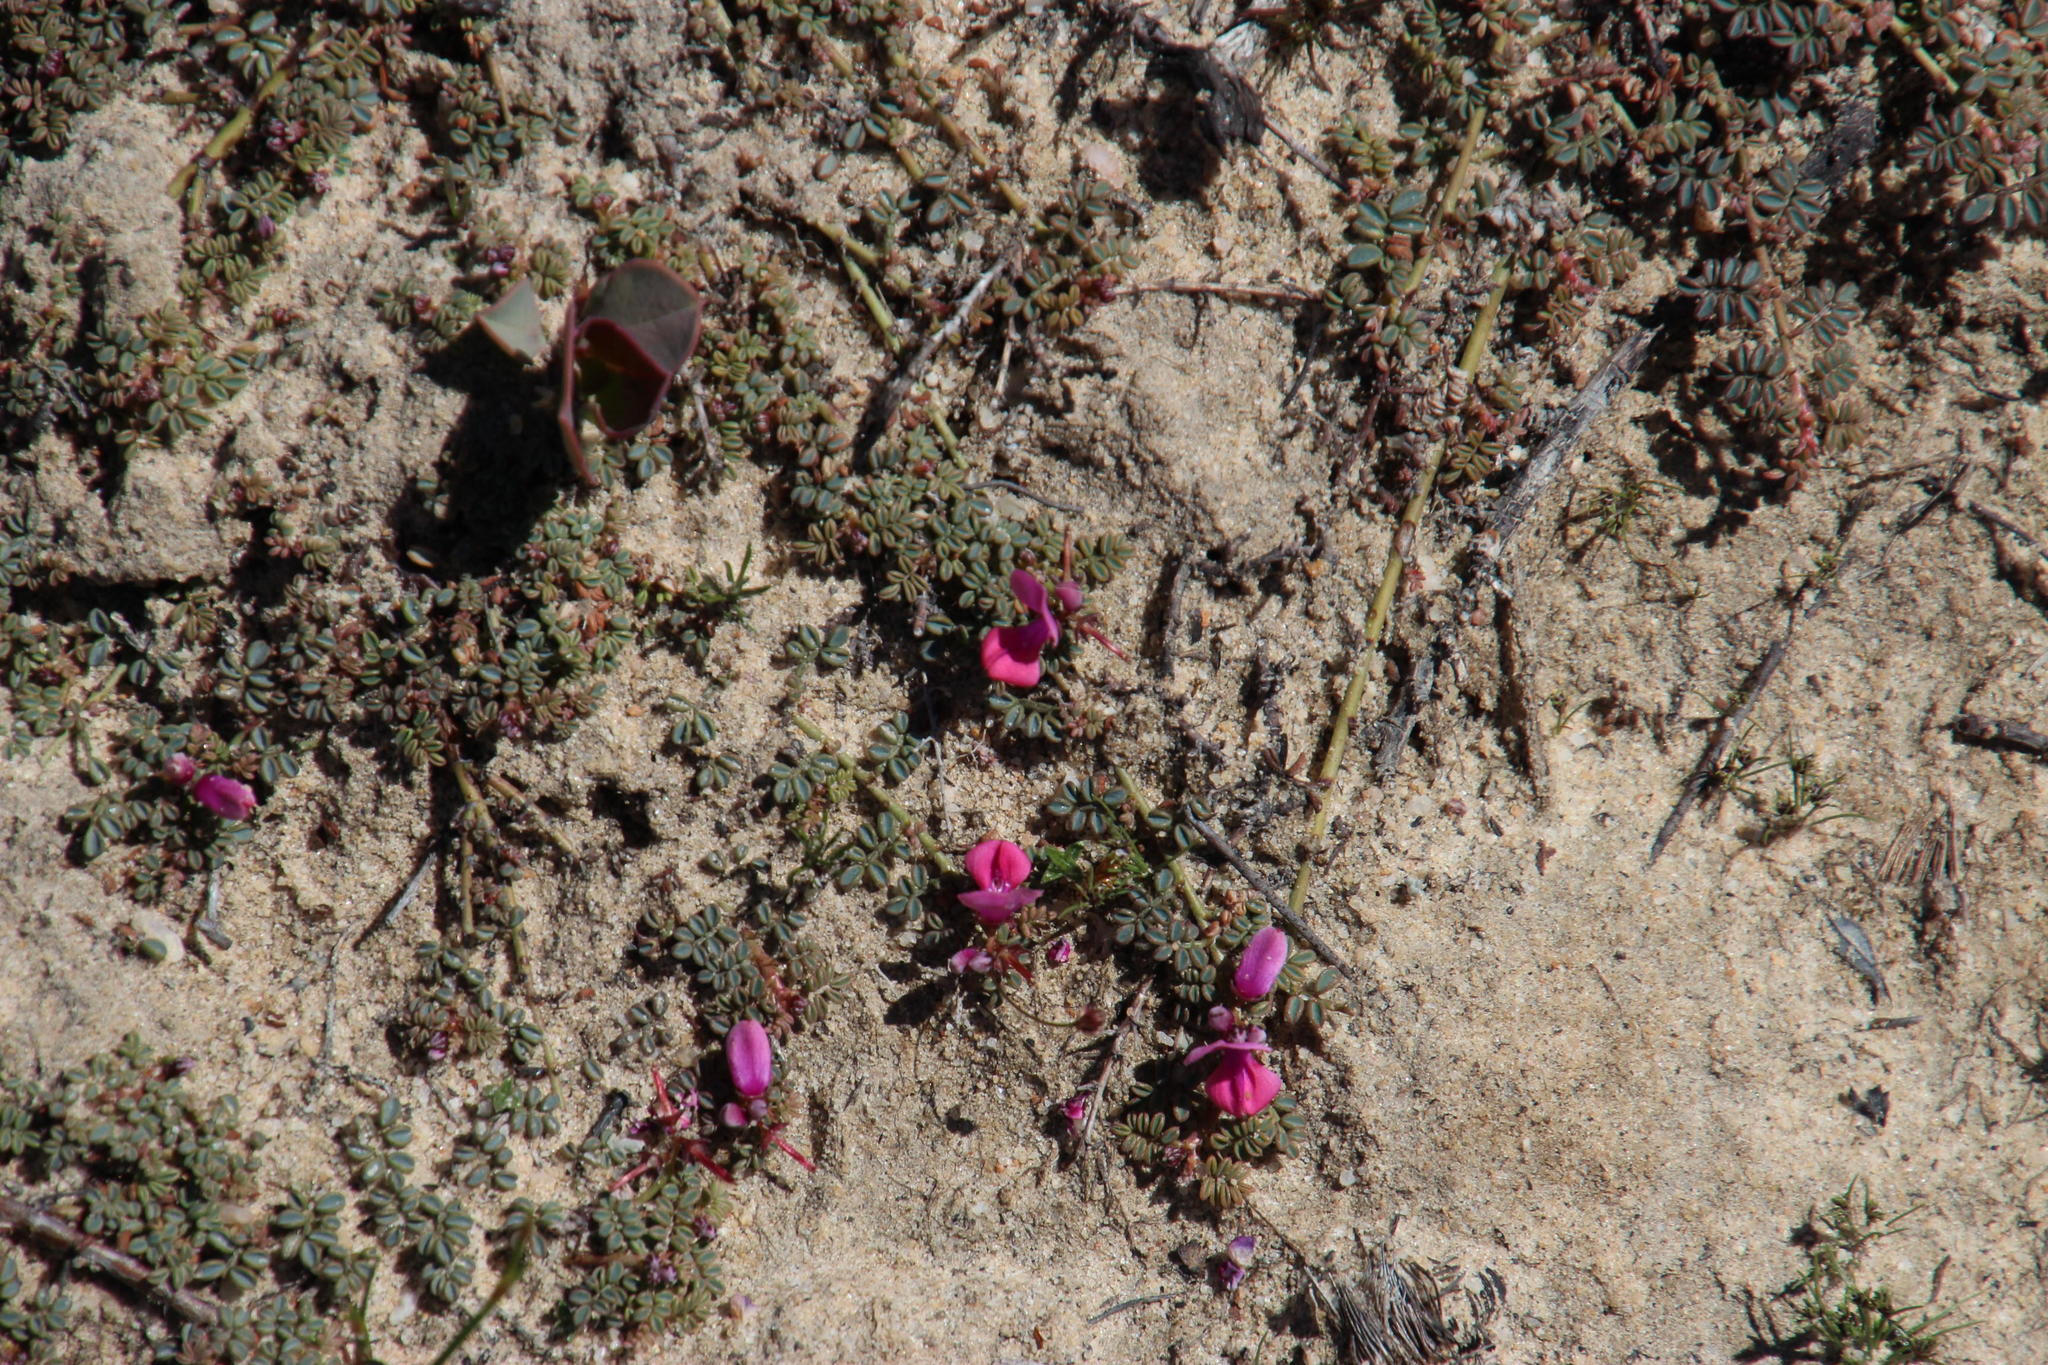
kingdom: Plantae
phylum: Tracheophyta
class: Magnoliopsida
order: Fabales
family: Fabaceae
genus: Indigofera
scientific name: Indigofera humifusa
